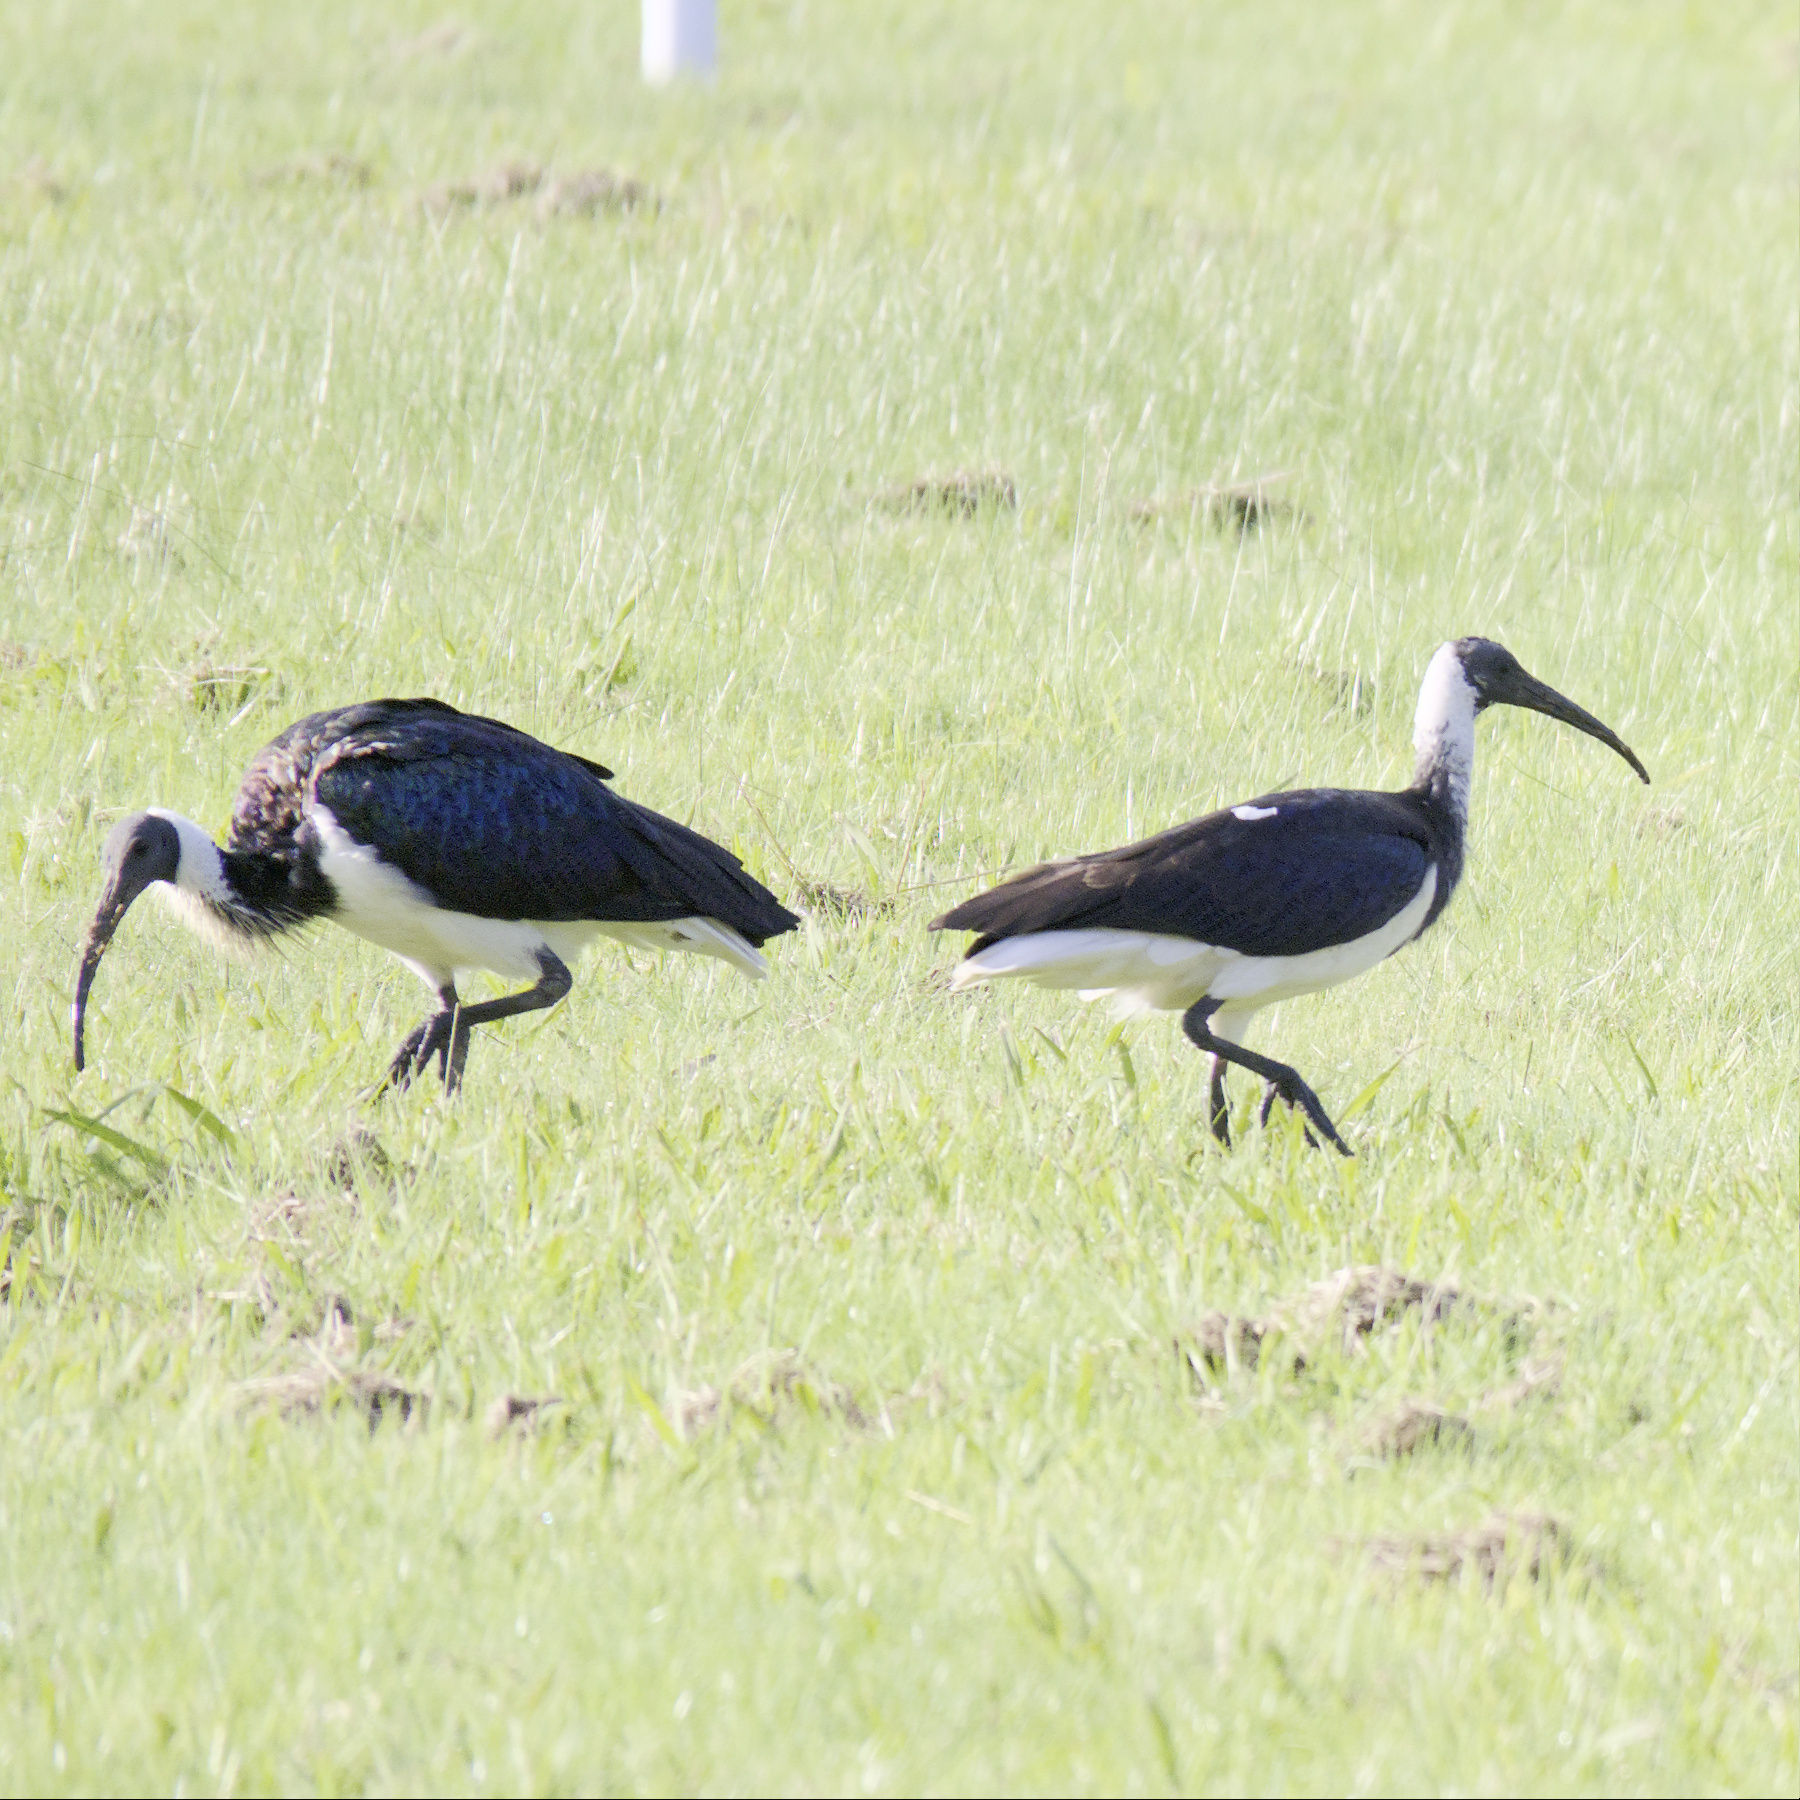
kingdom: Animalia
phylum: Chordata
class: Aves
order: Pelecaniformes
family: Threskiornithidae
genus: Threskiornis
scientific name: Threskiornis spinicollis
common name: Straw-necked ibis
